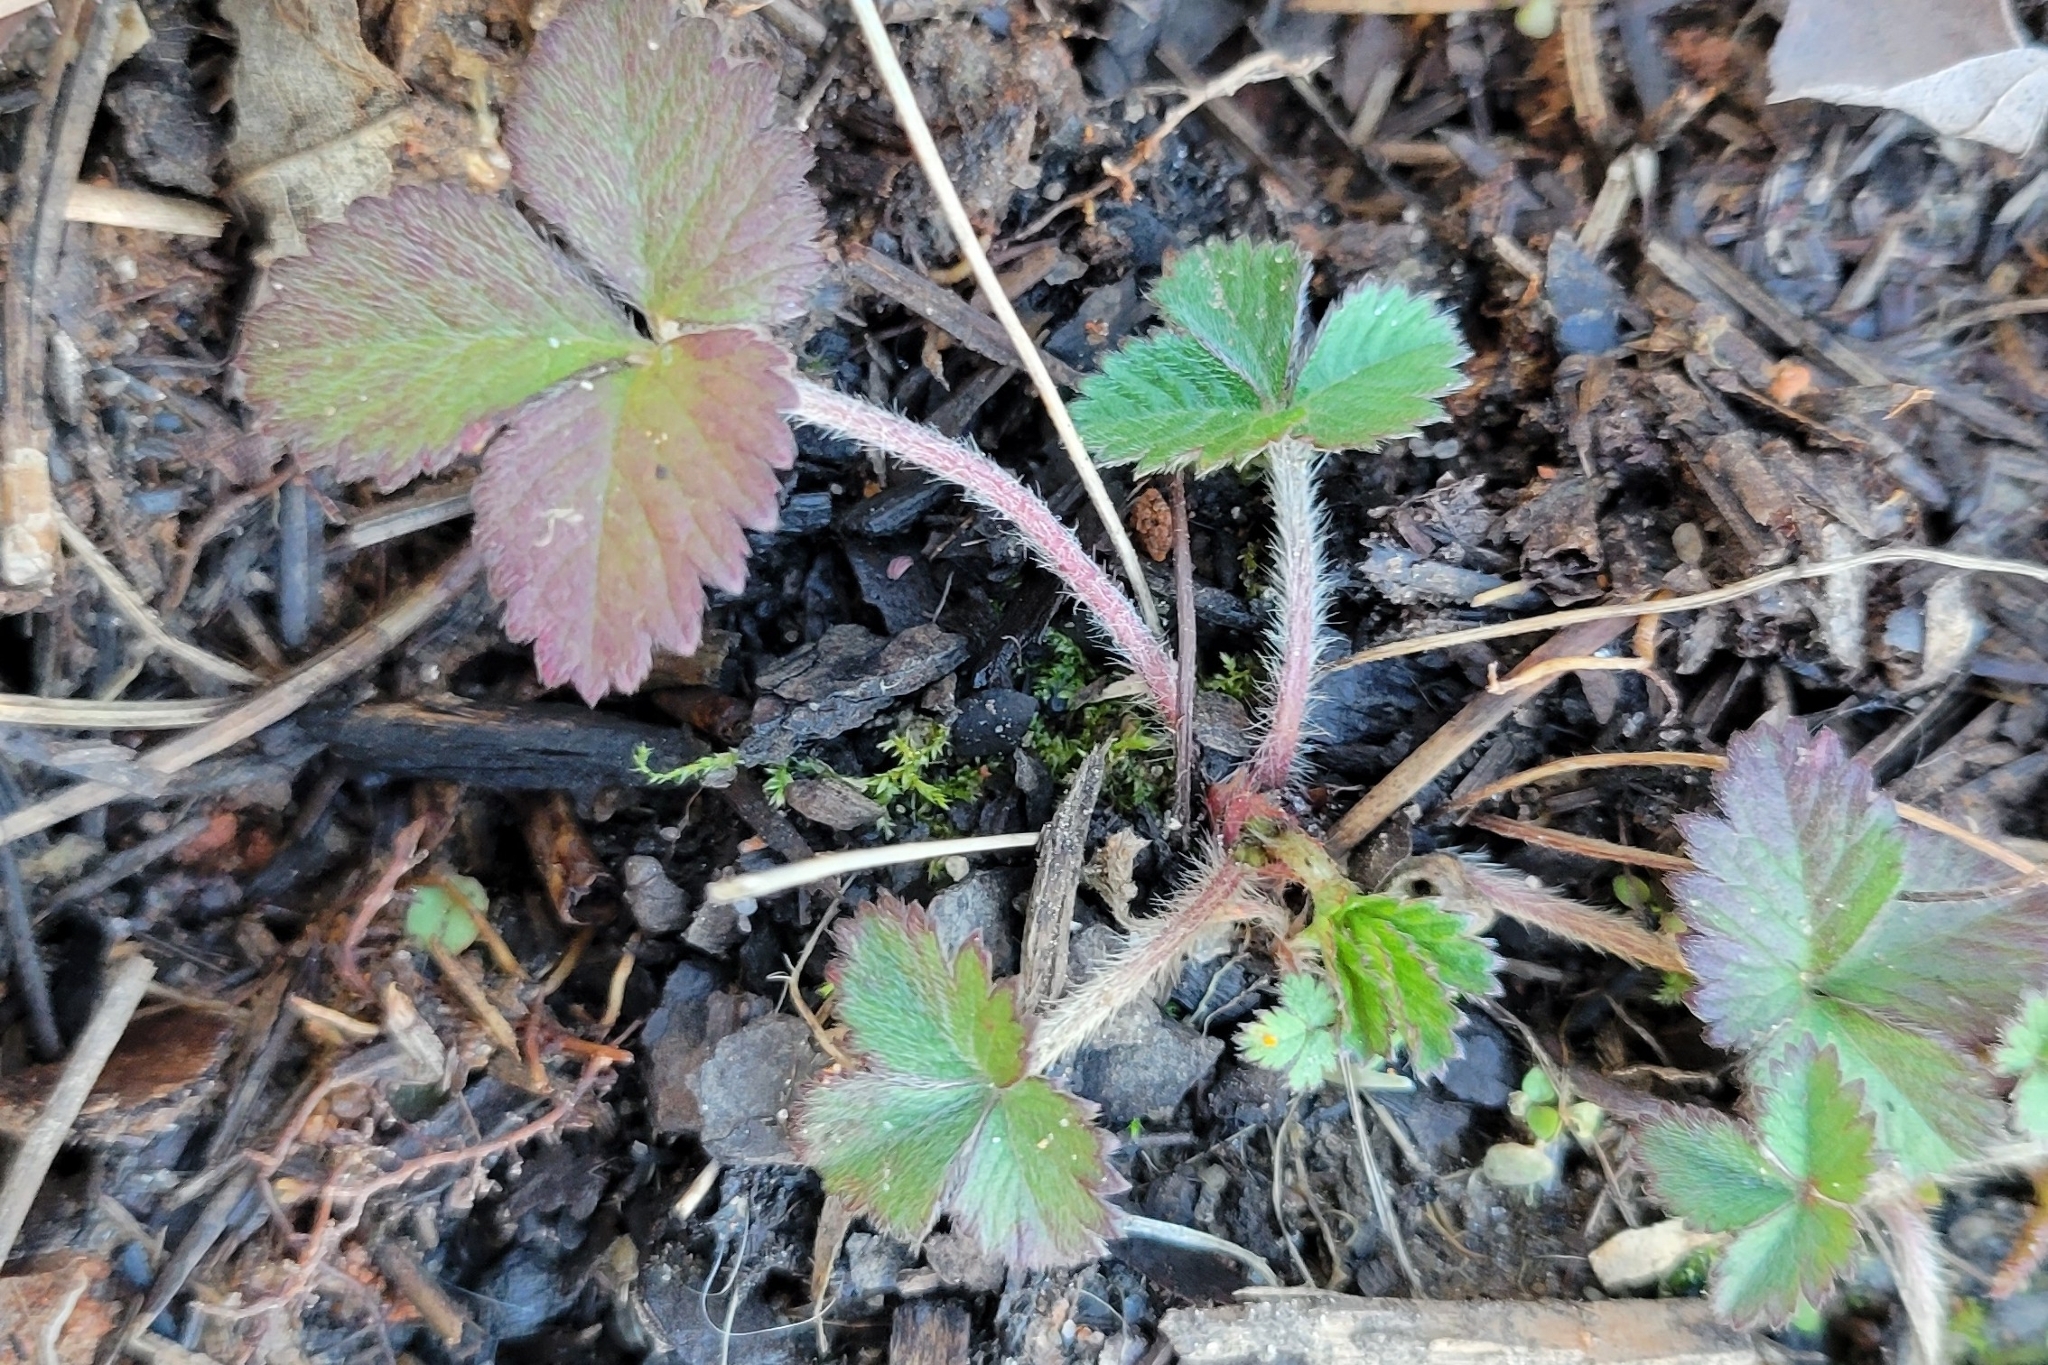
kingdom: Plantae
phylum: Tracheophyta
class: Magnoliopsida
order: Rosales
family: Rosaceae
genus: Potentilla
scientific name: Potentilla indica
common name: Yellow-flowered strawberry
